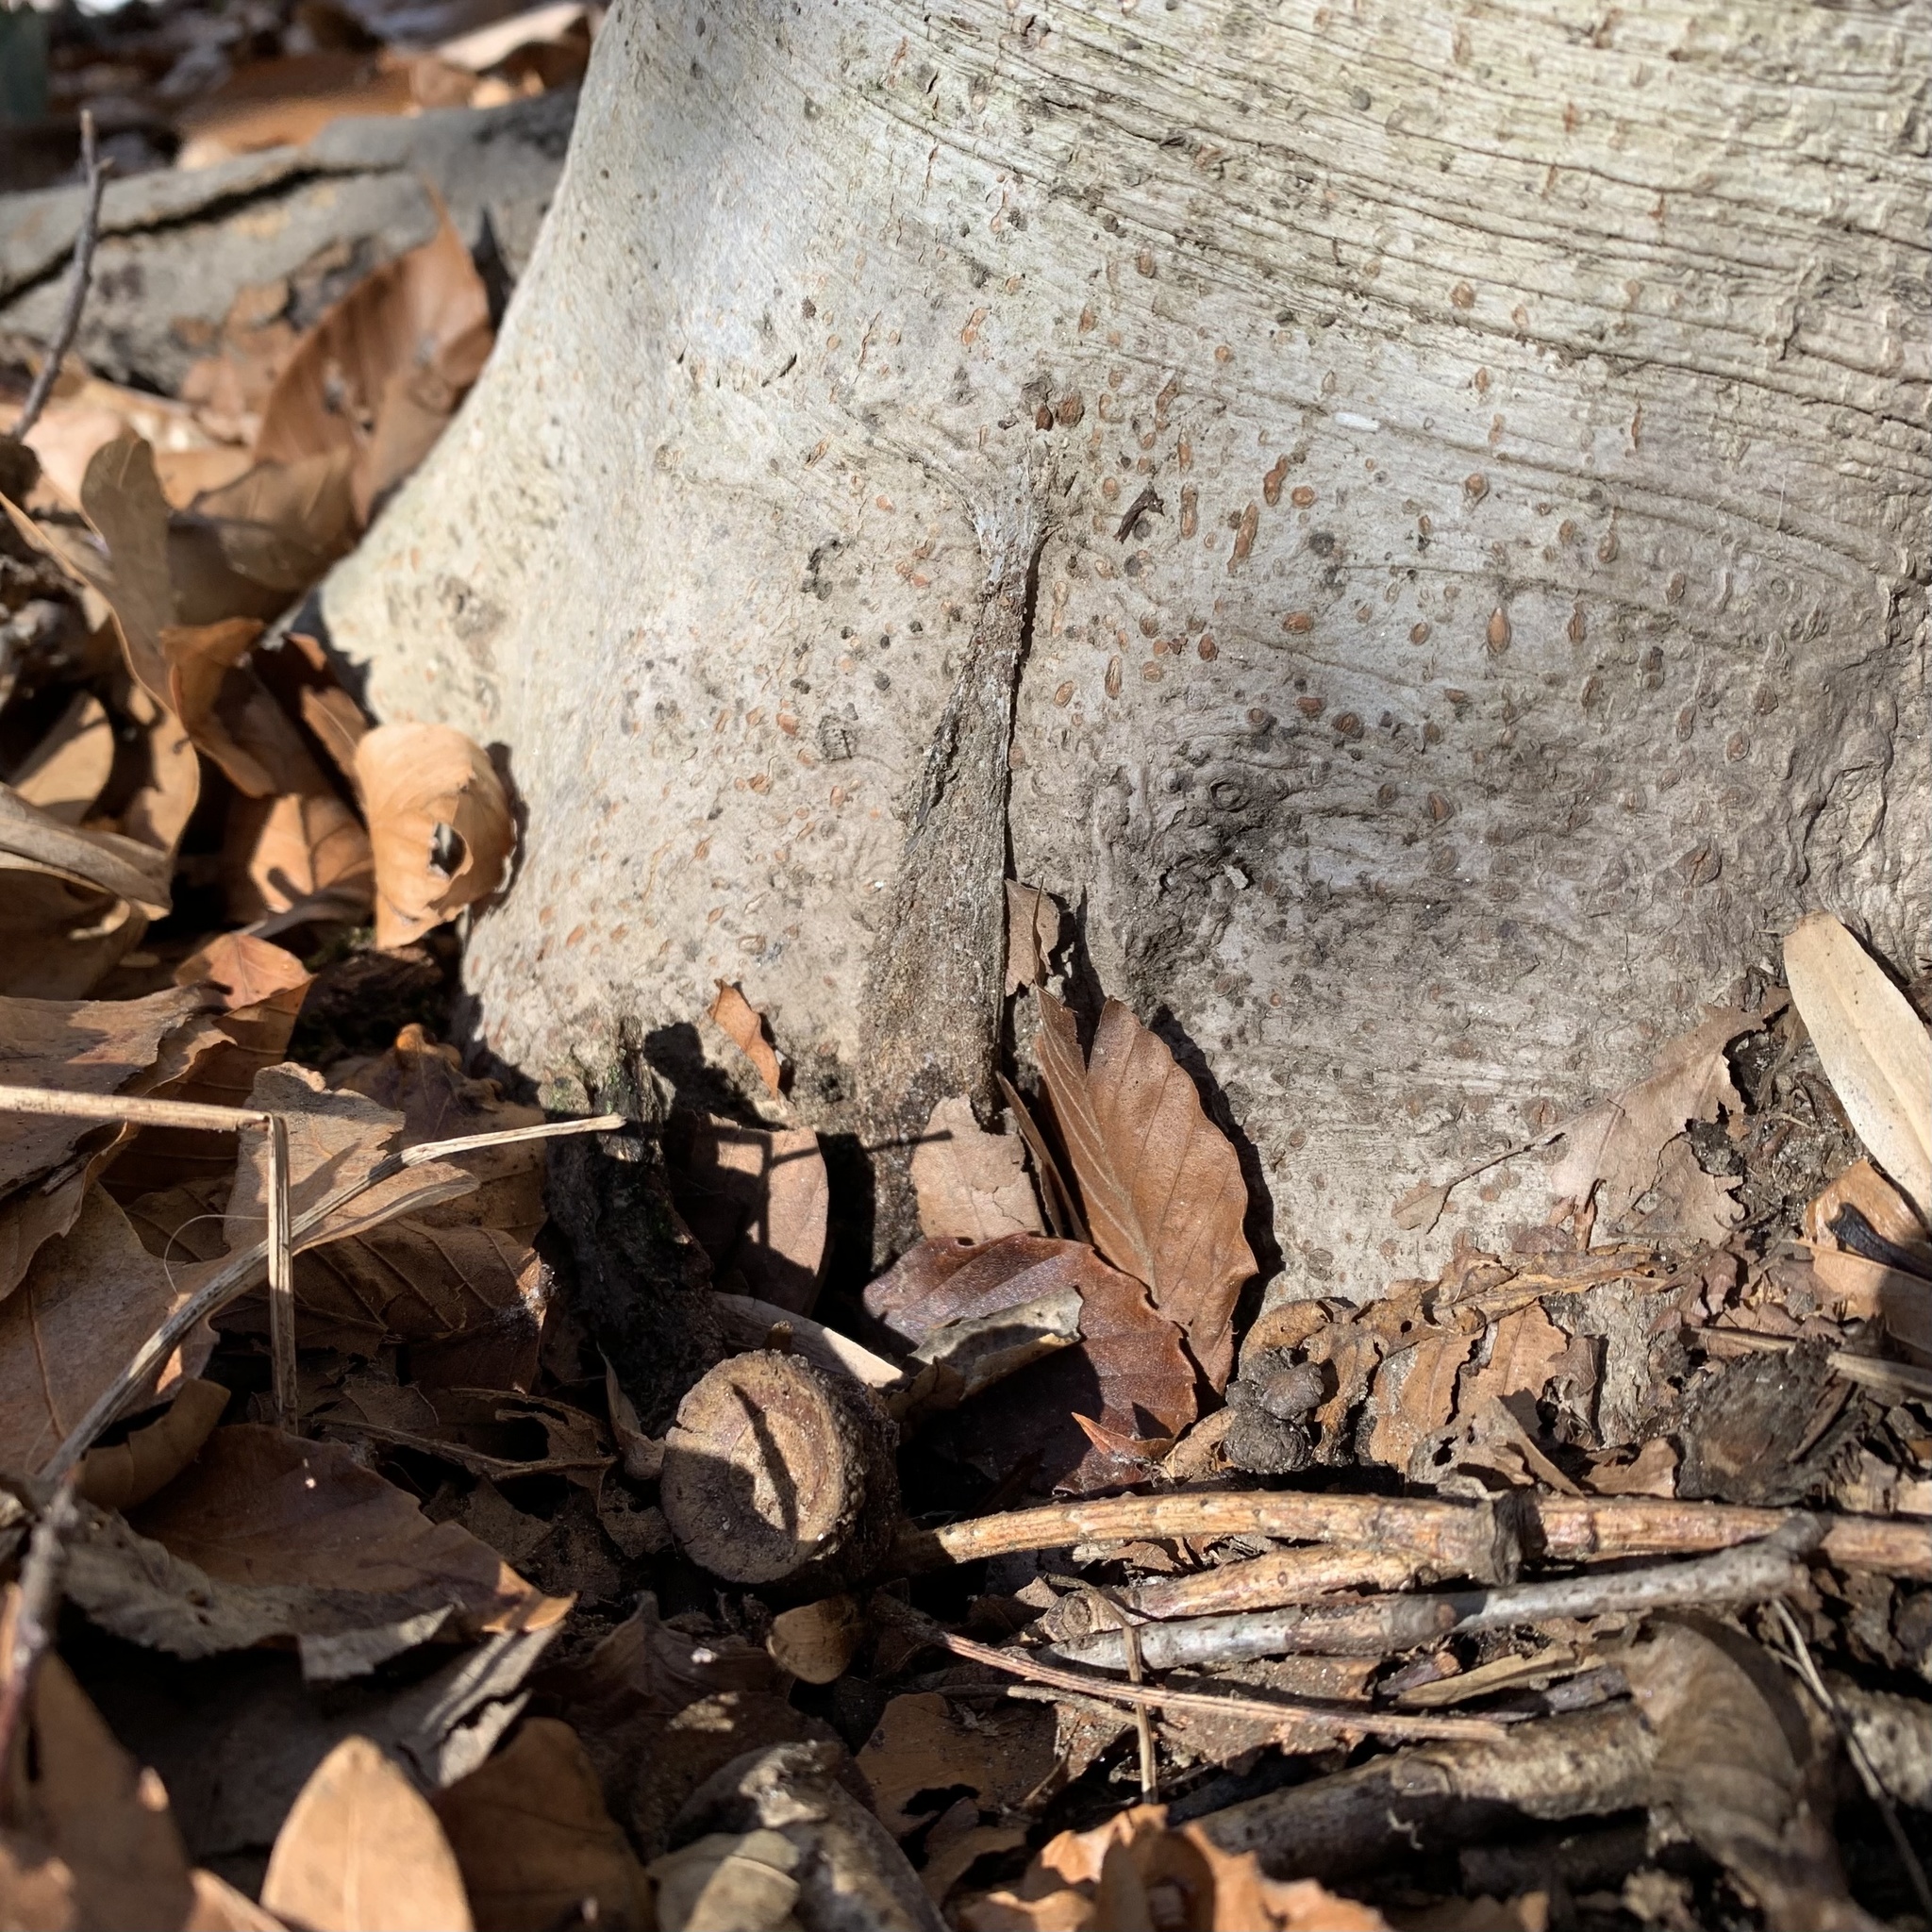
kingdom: Animalia
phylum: Arthropoda
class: Arachnida
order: Araneae
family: Atypidae
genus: Atypus
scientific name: Atypus karschi
